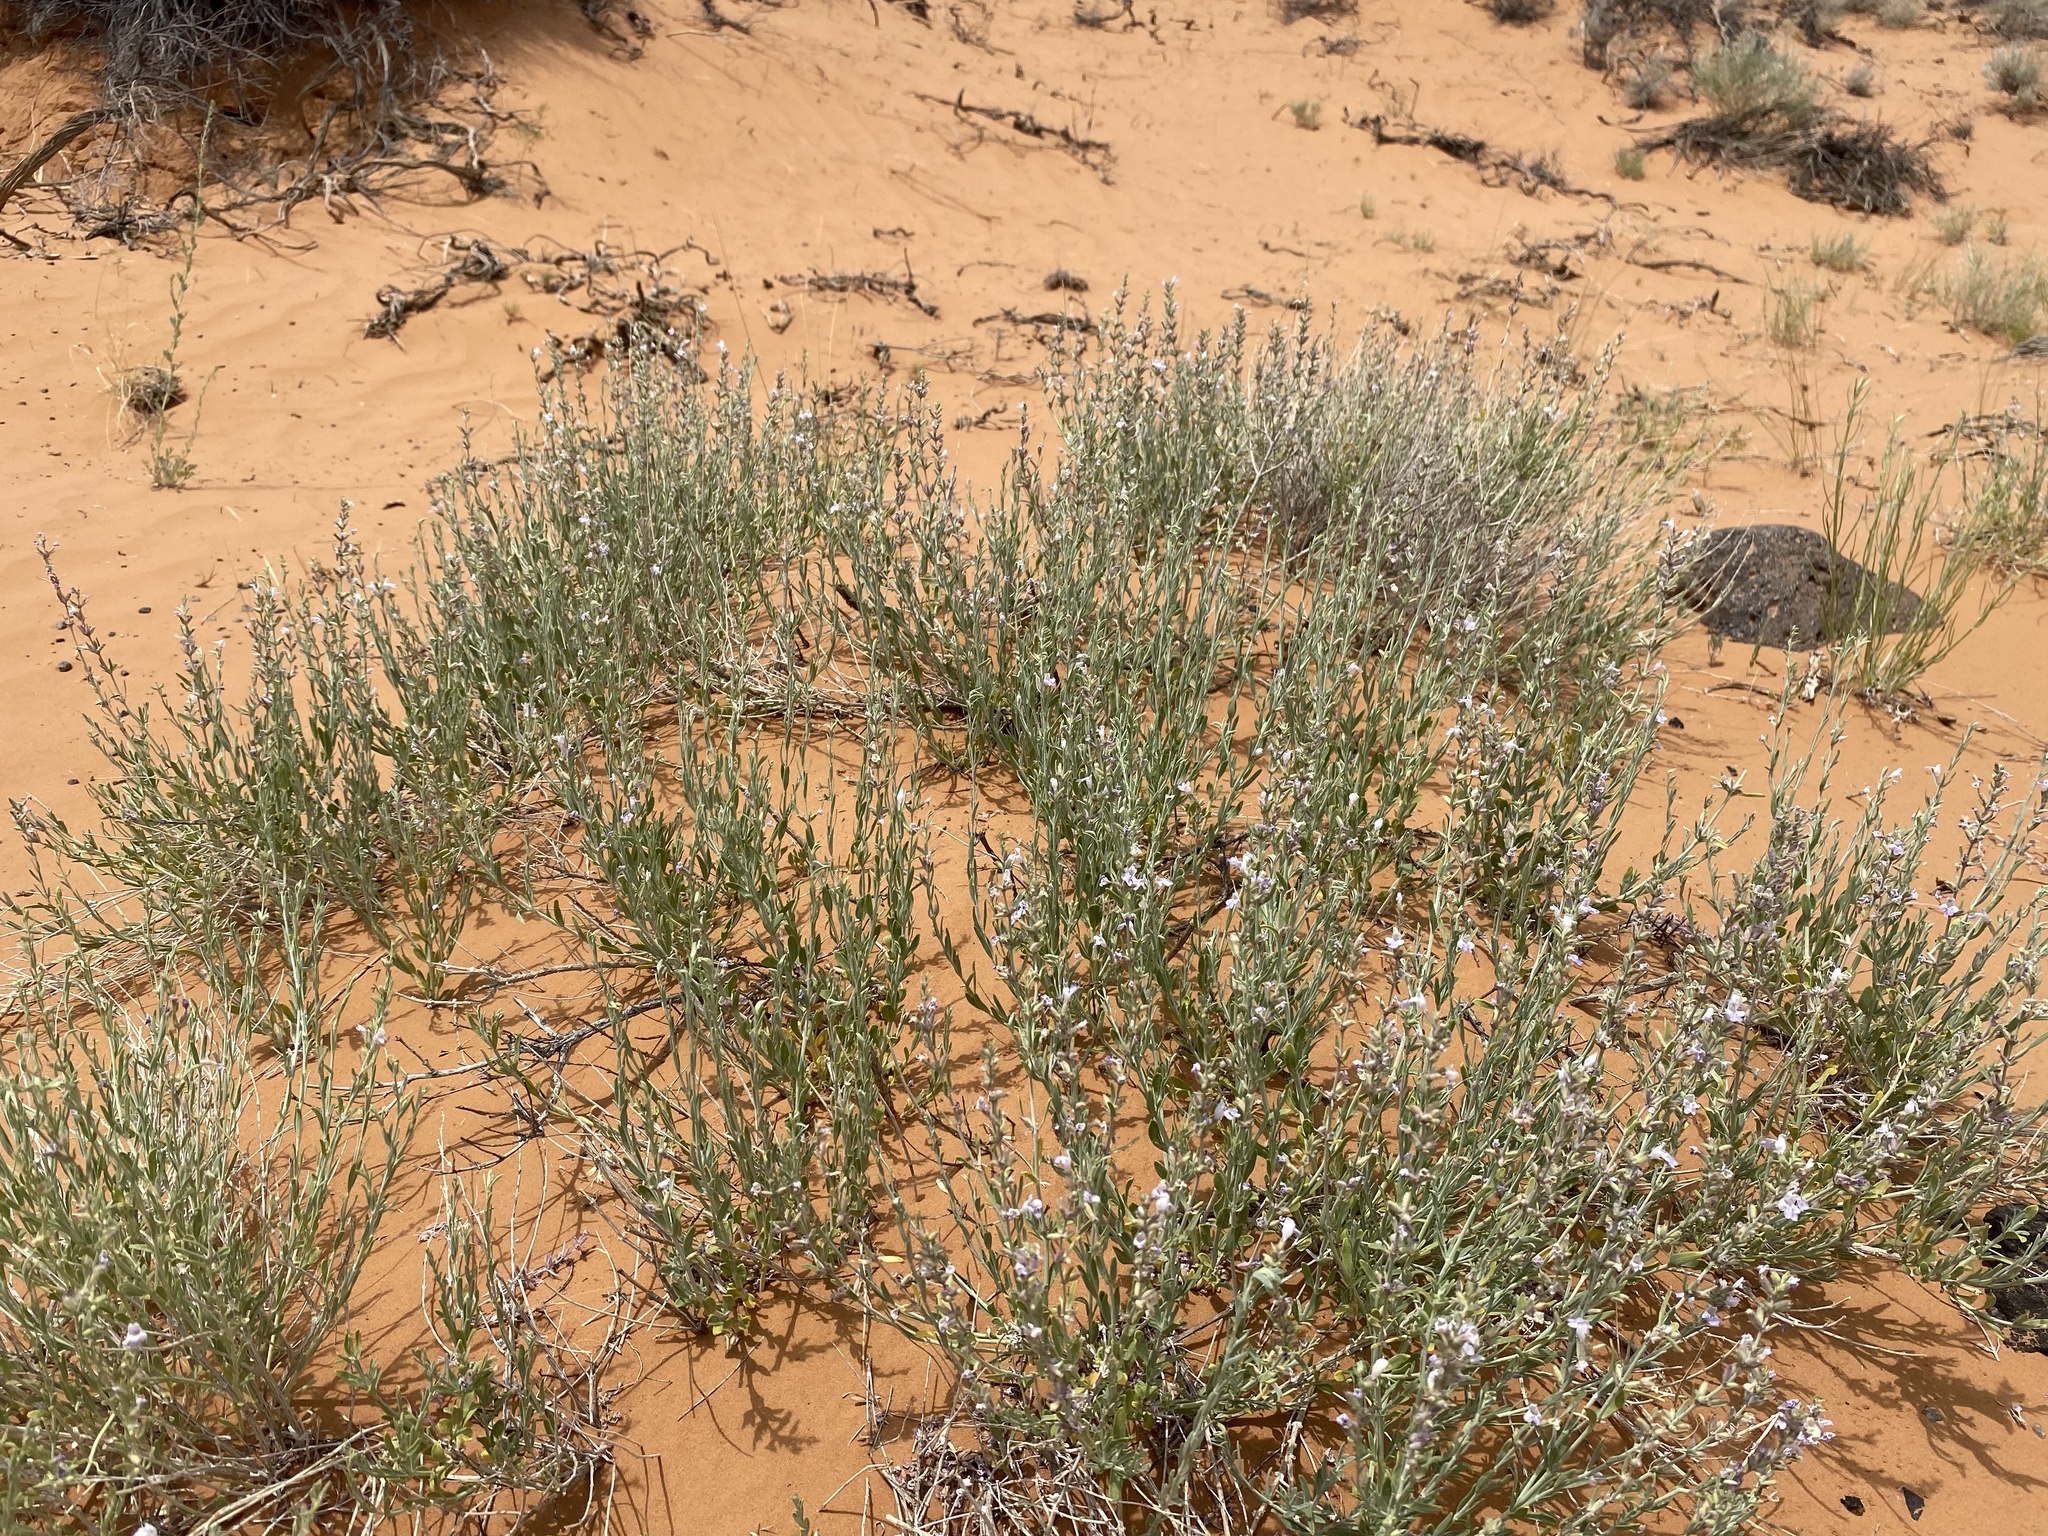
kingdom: Plantae
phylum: Tracheophyta
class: Magnoliopsida
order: Lamiales
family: Lamiaceae
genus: Poliomintha
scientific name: Poliomintha incana
